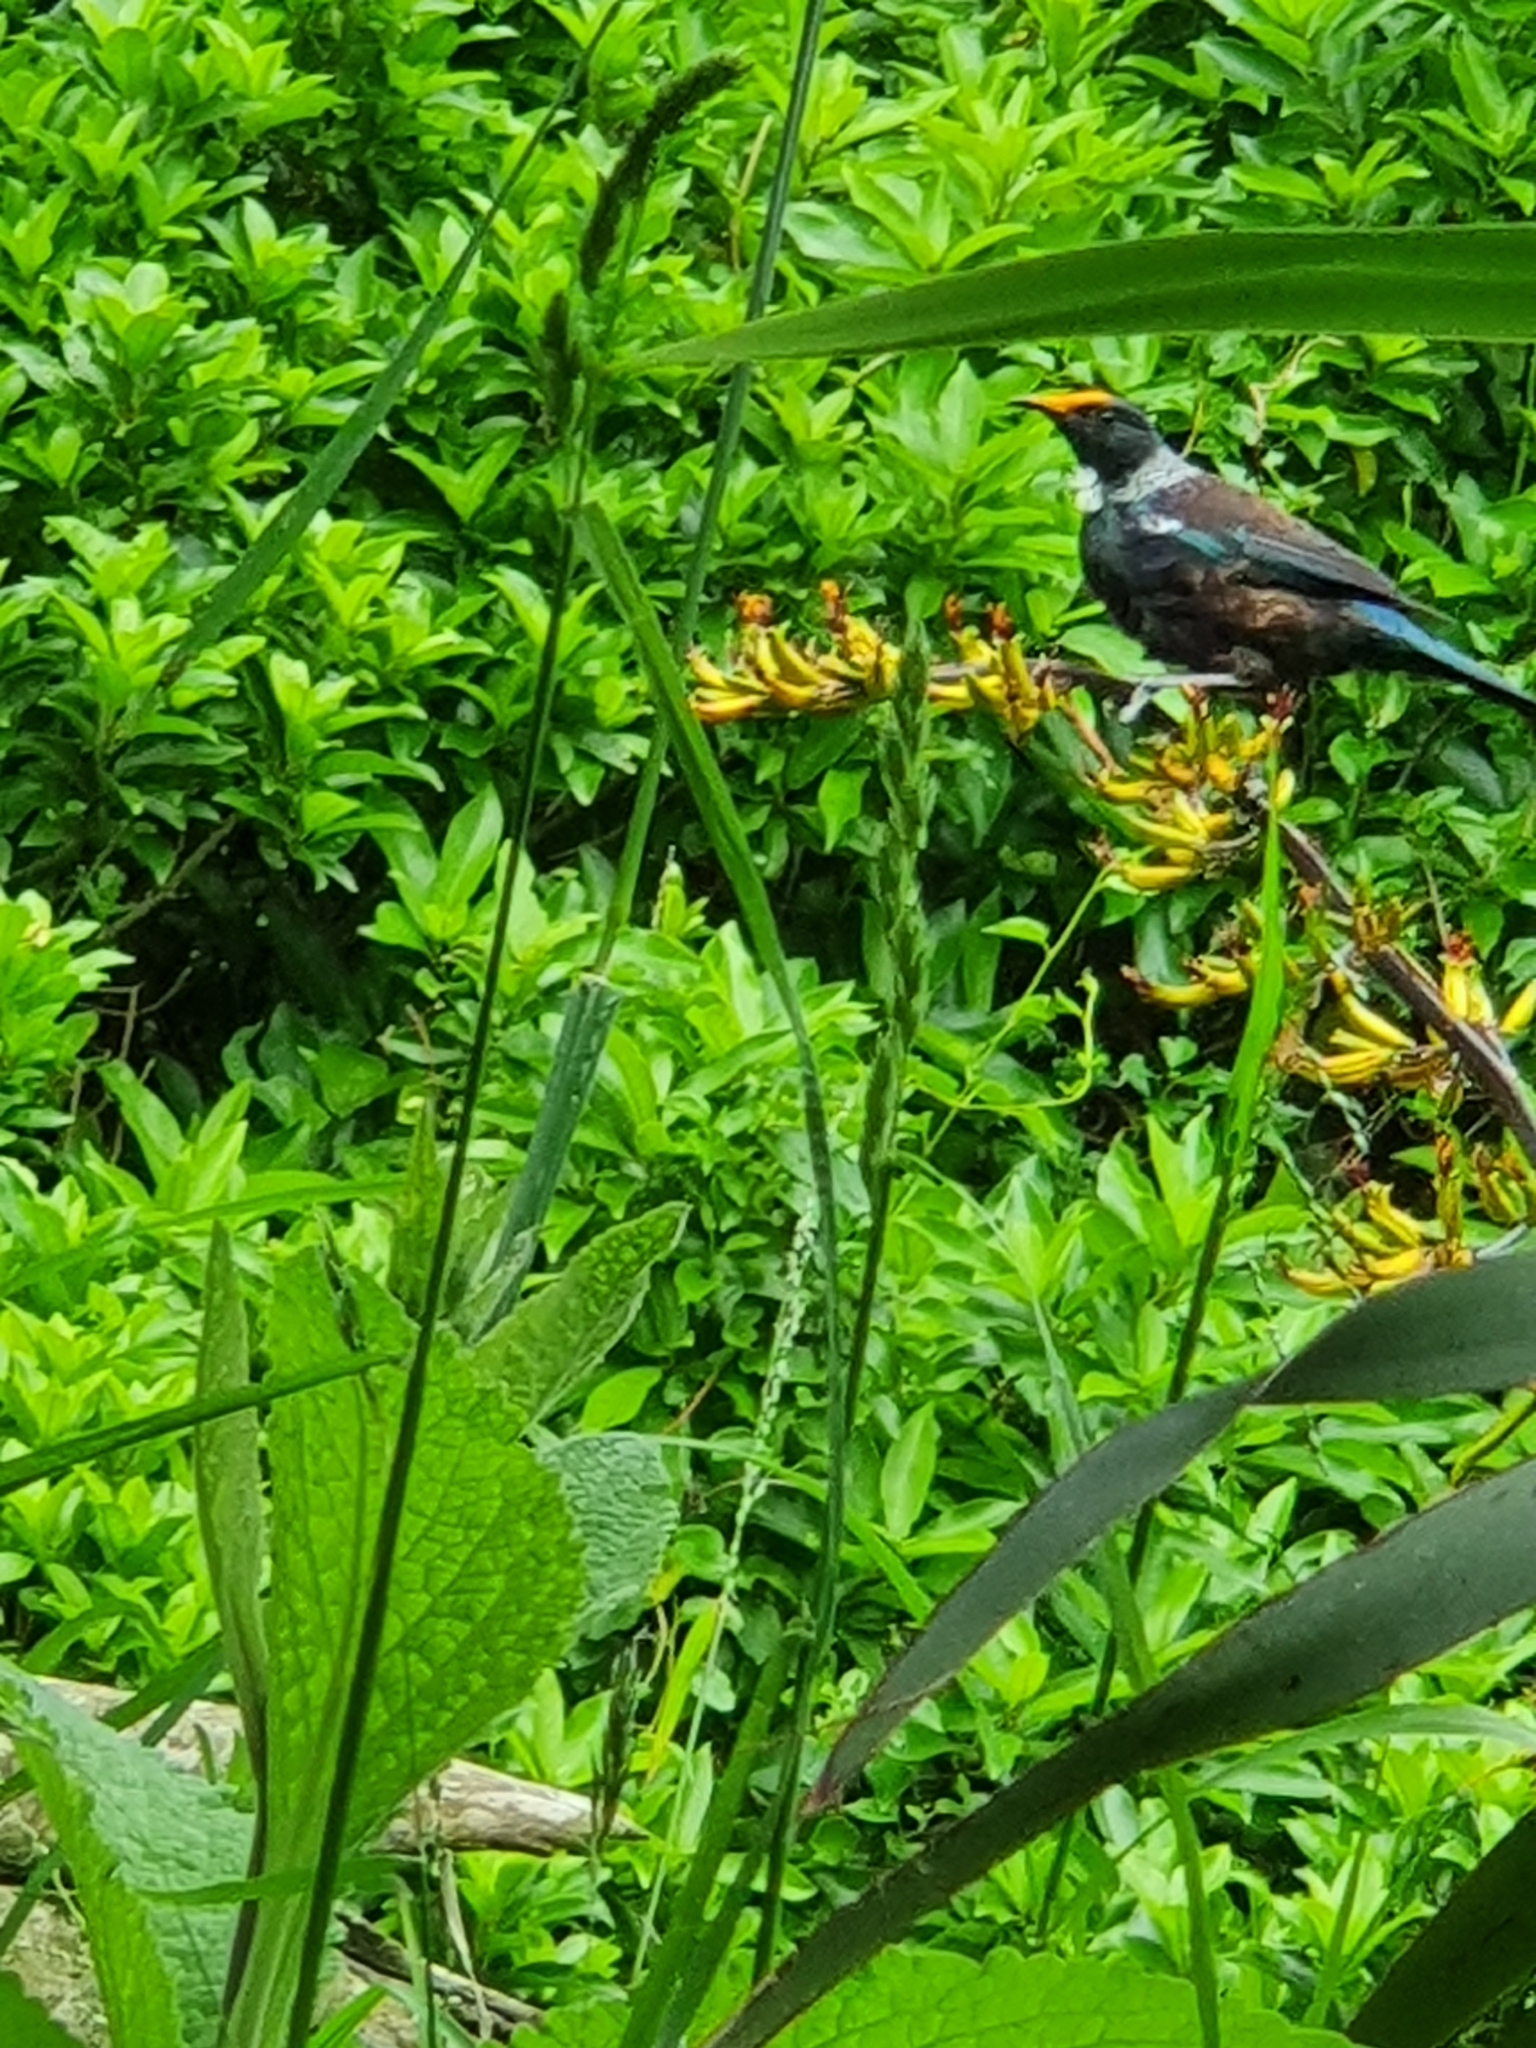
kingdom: Animalia
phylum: Chordata
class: Aves
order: Passeriformes
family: Meliphagidae
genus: Prosthemadera
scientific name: Prosthemadera novaeseelandiae
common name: Tui
